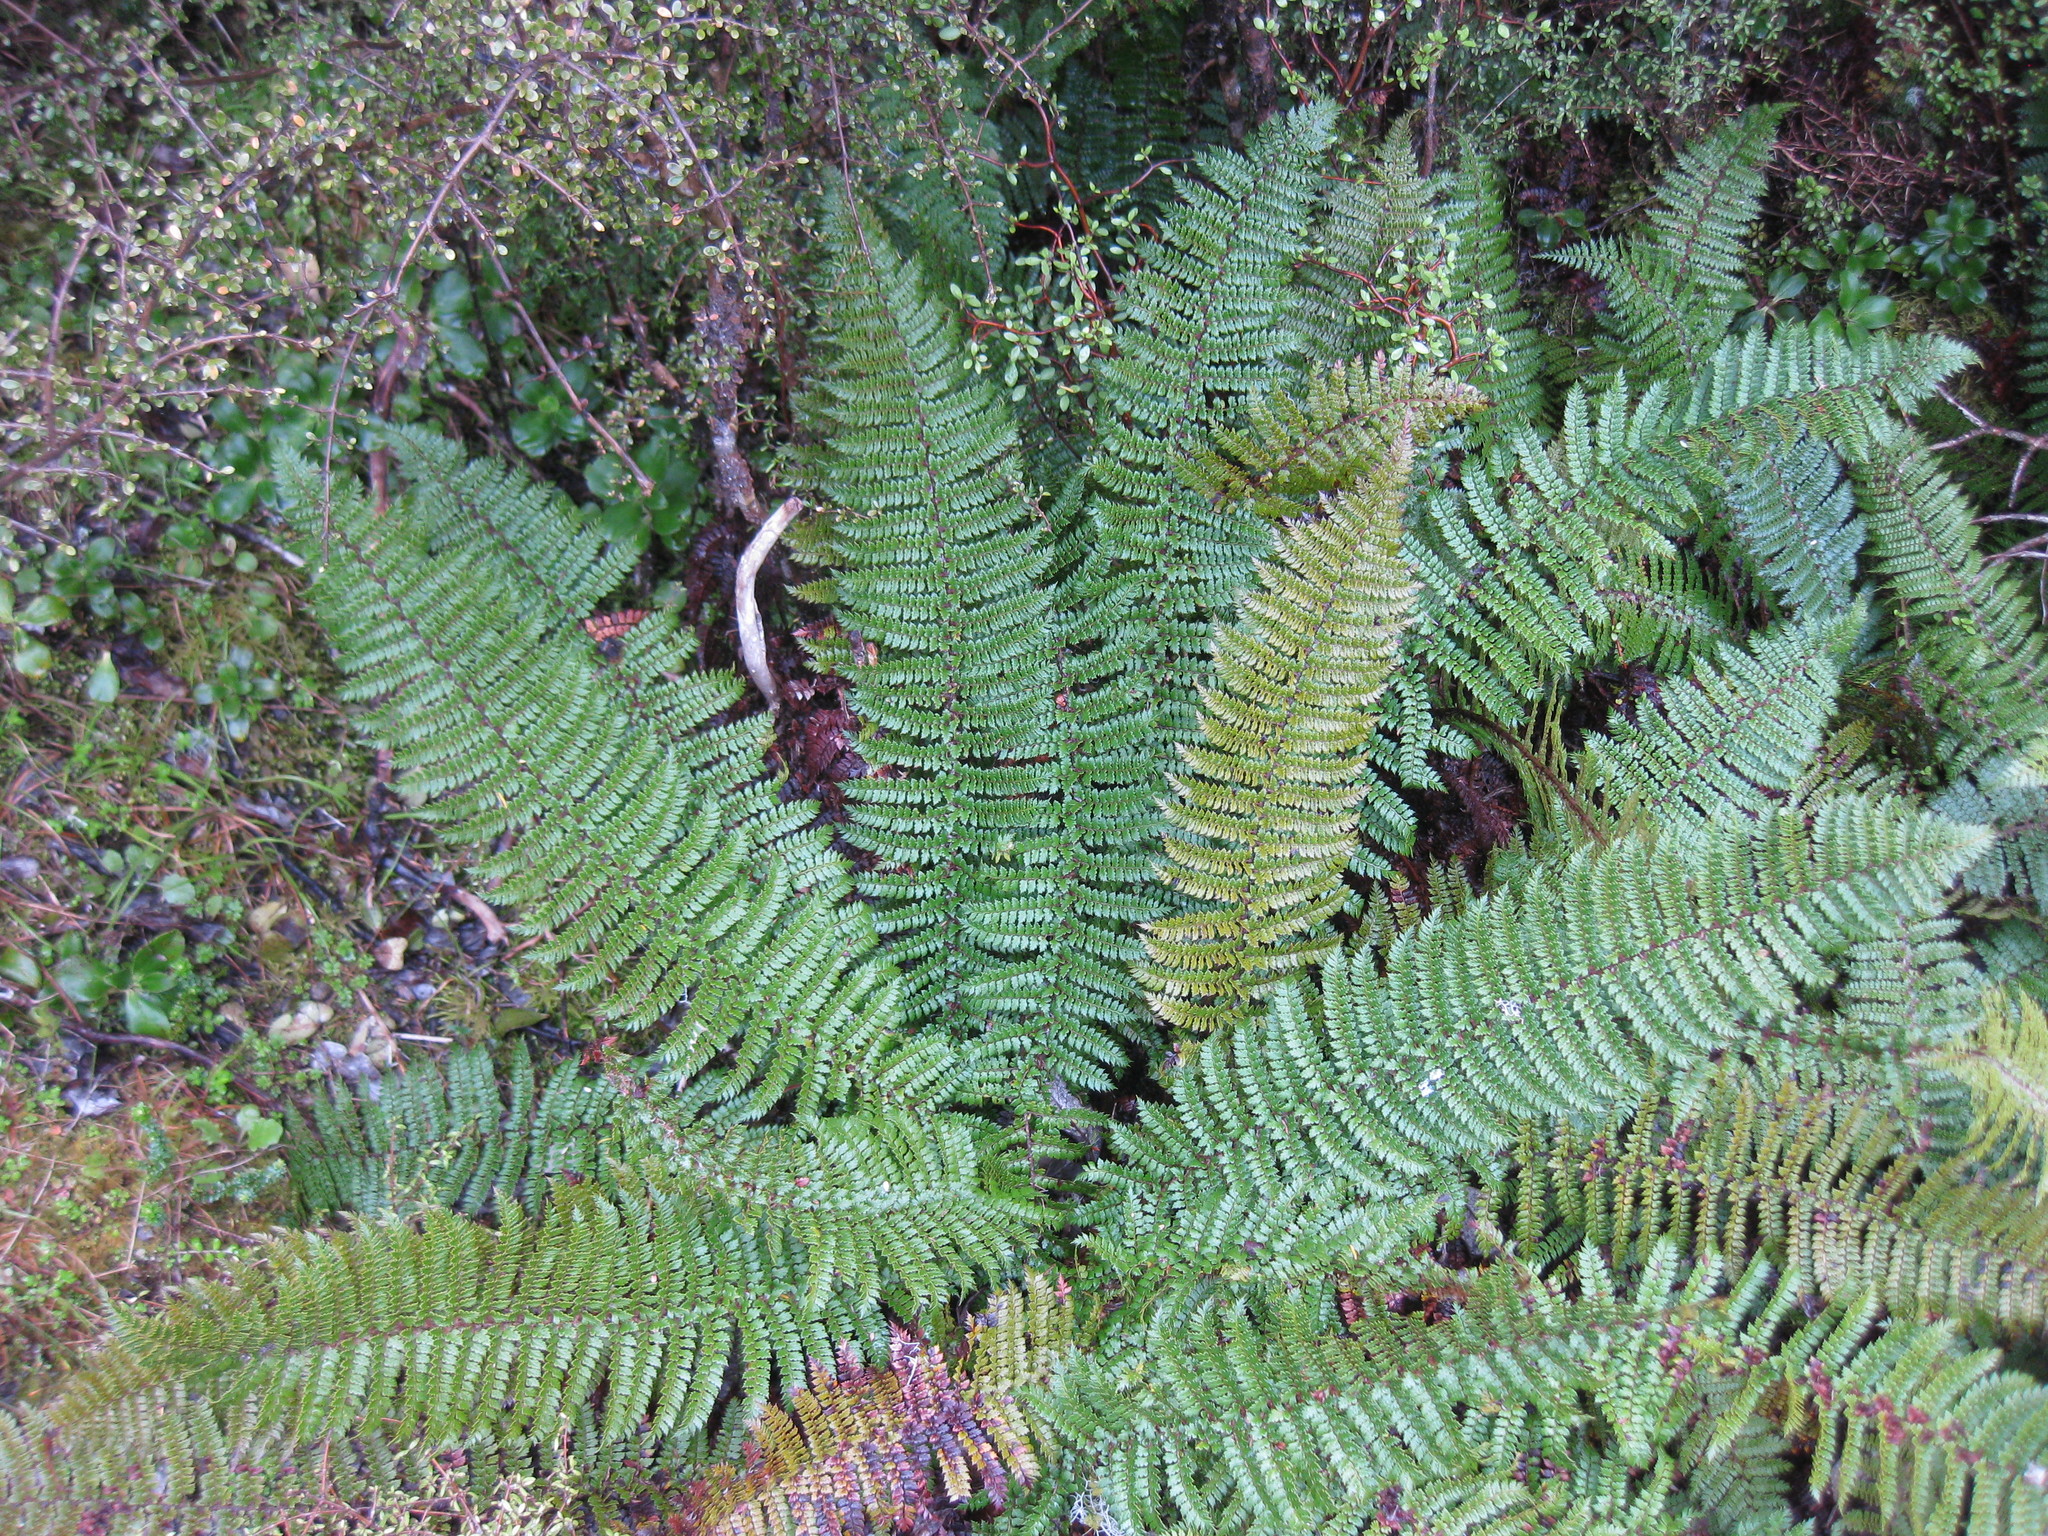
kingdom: Plantae
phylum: Tracheophyta
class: Polypodiopsida
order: Polypodiales
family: Dryopteridaceae
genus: Polystichum
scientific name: Polystichum vestitum
